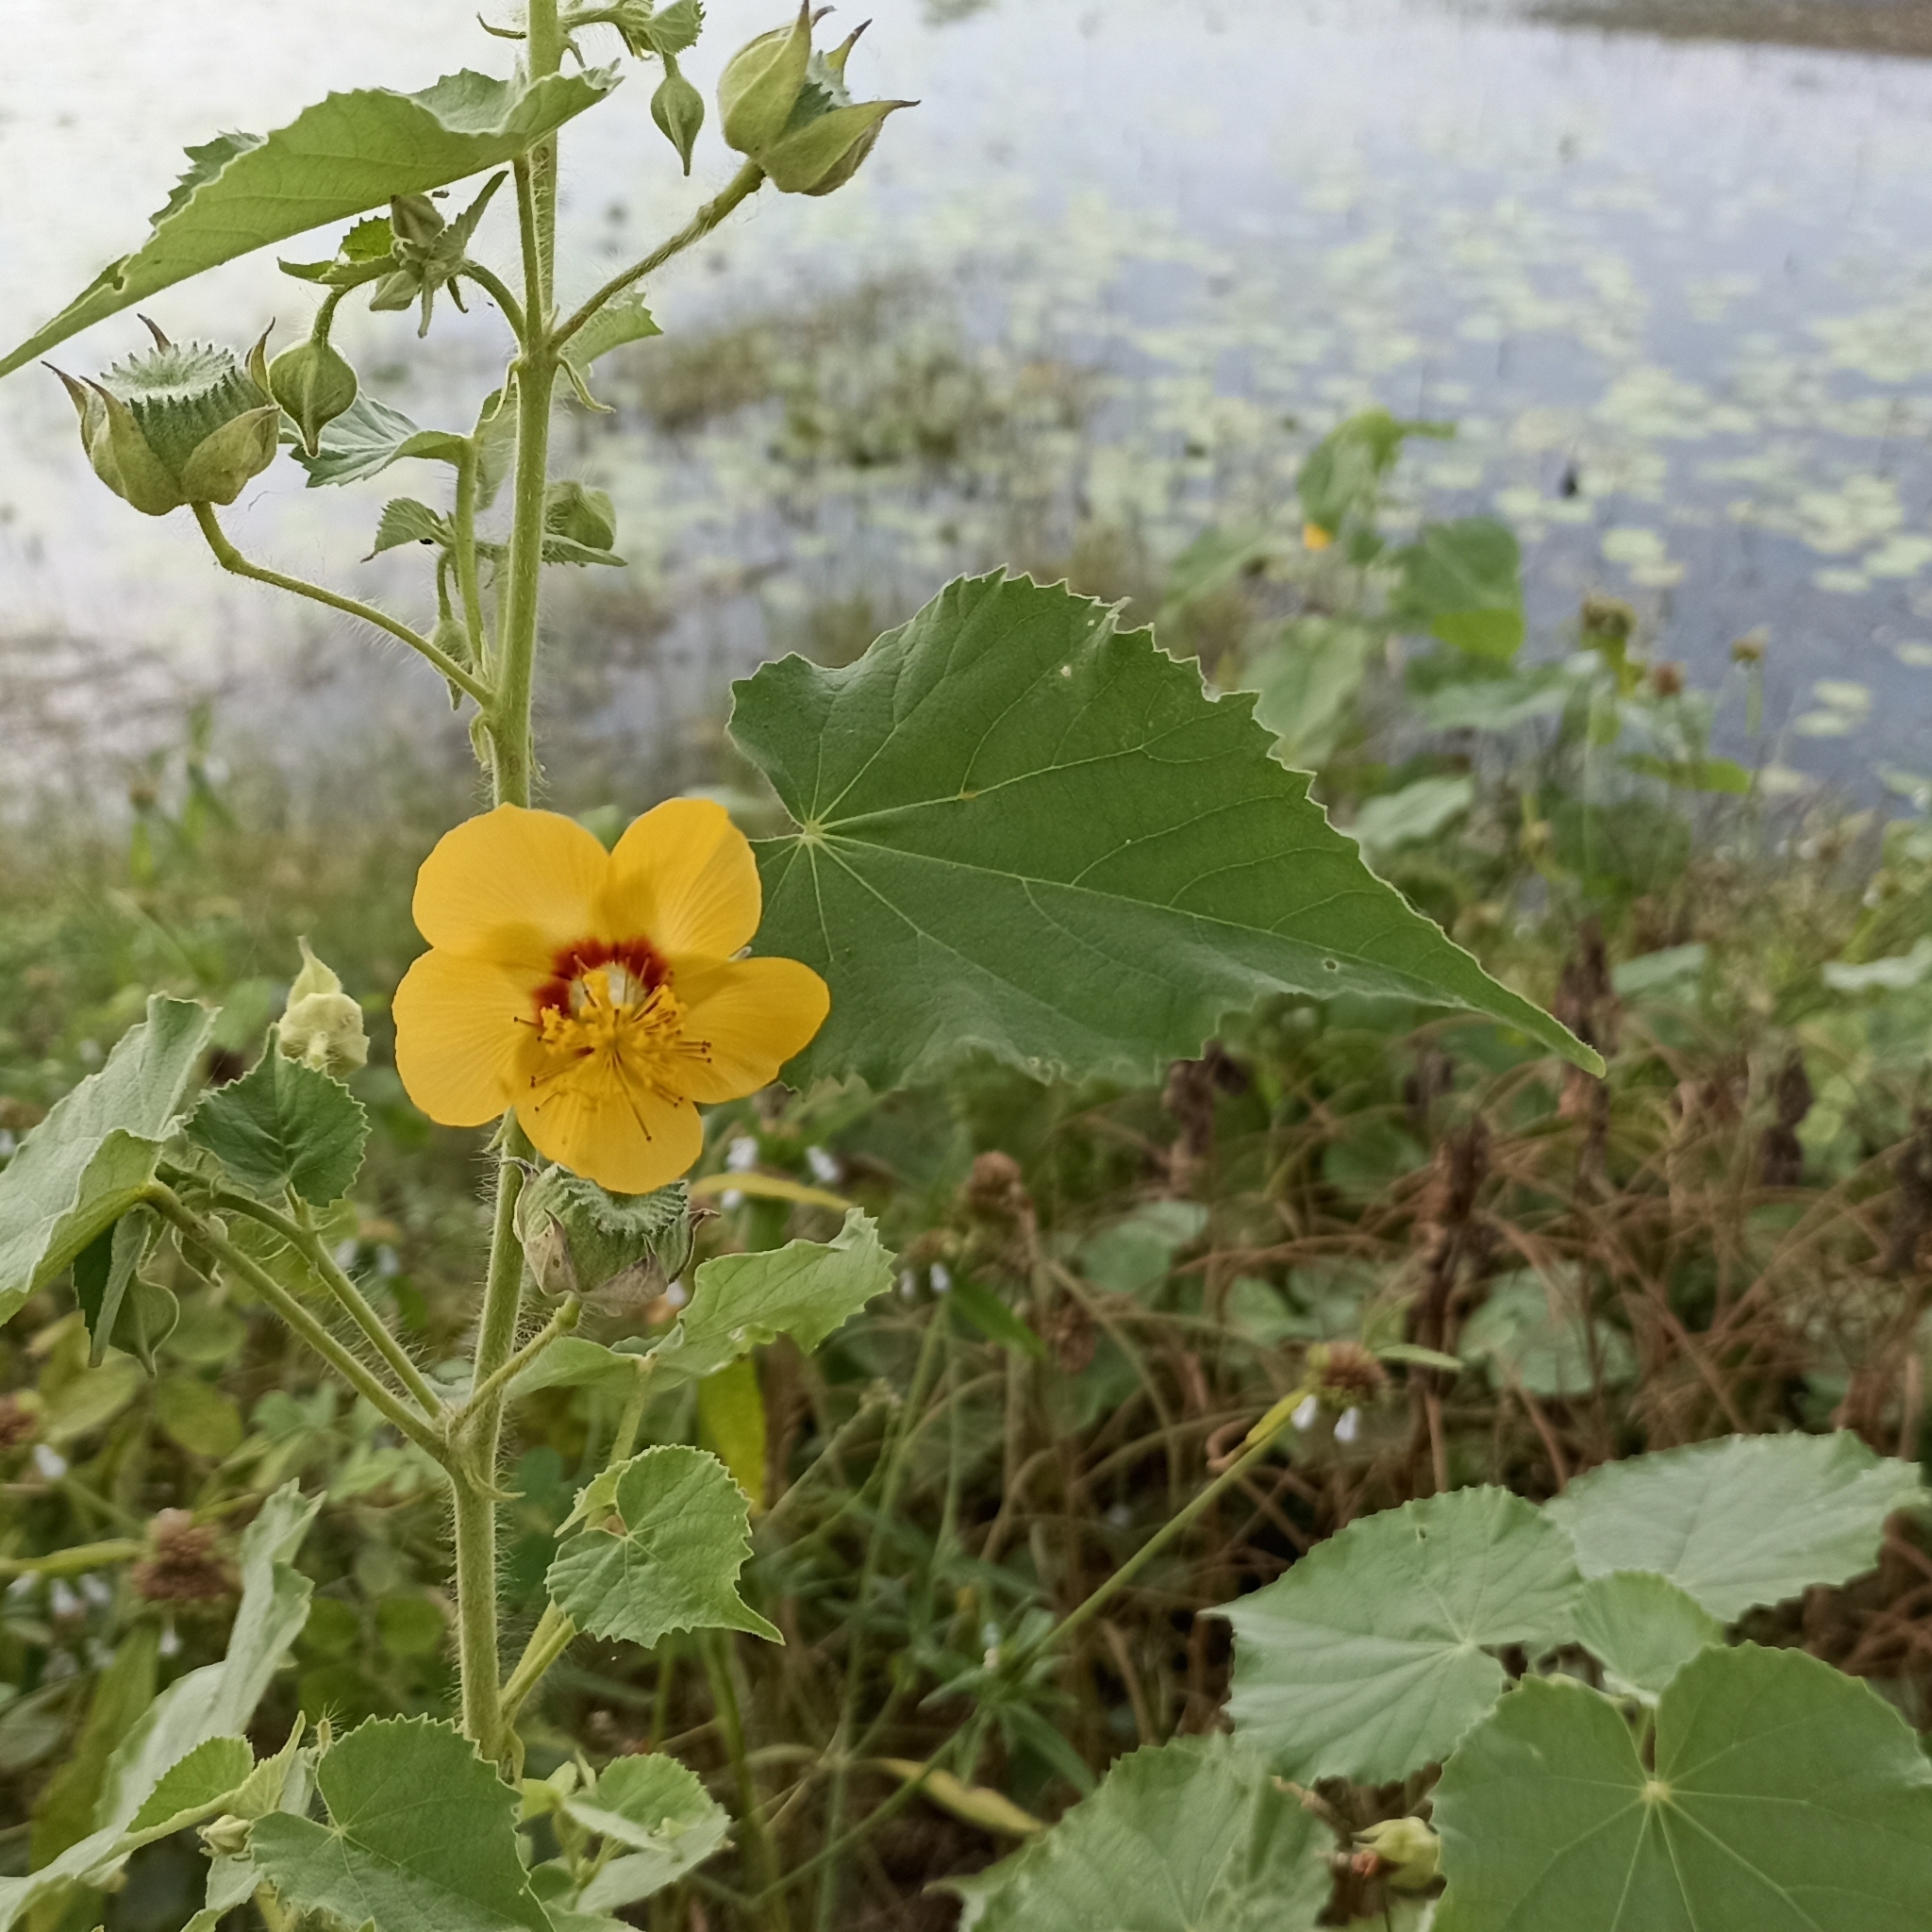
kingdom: Plantae
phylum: Tracheophyta
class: Magnoliopsida
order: Malvales
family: Malvaceae
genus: Abutilon
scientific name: Abutilon hirtum
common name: Florida keys indian mallow
